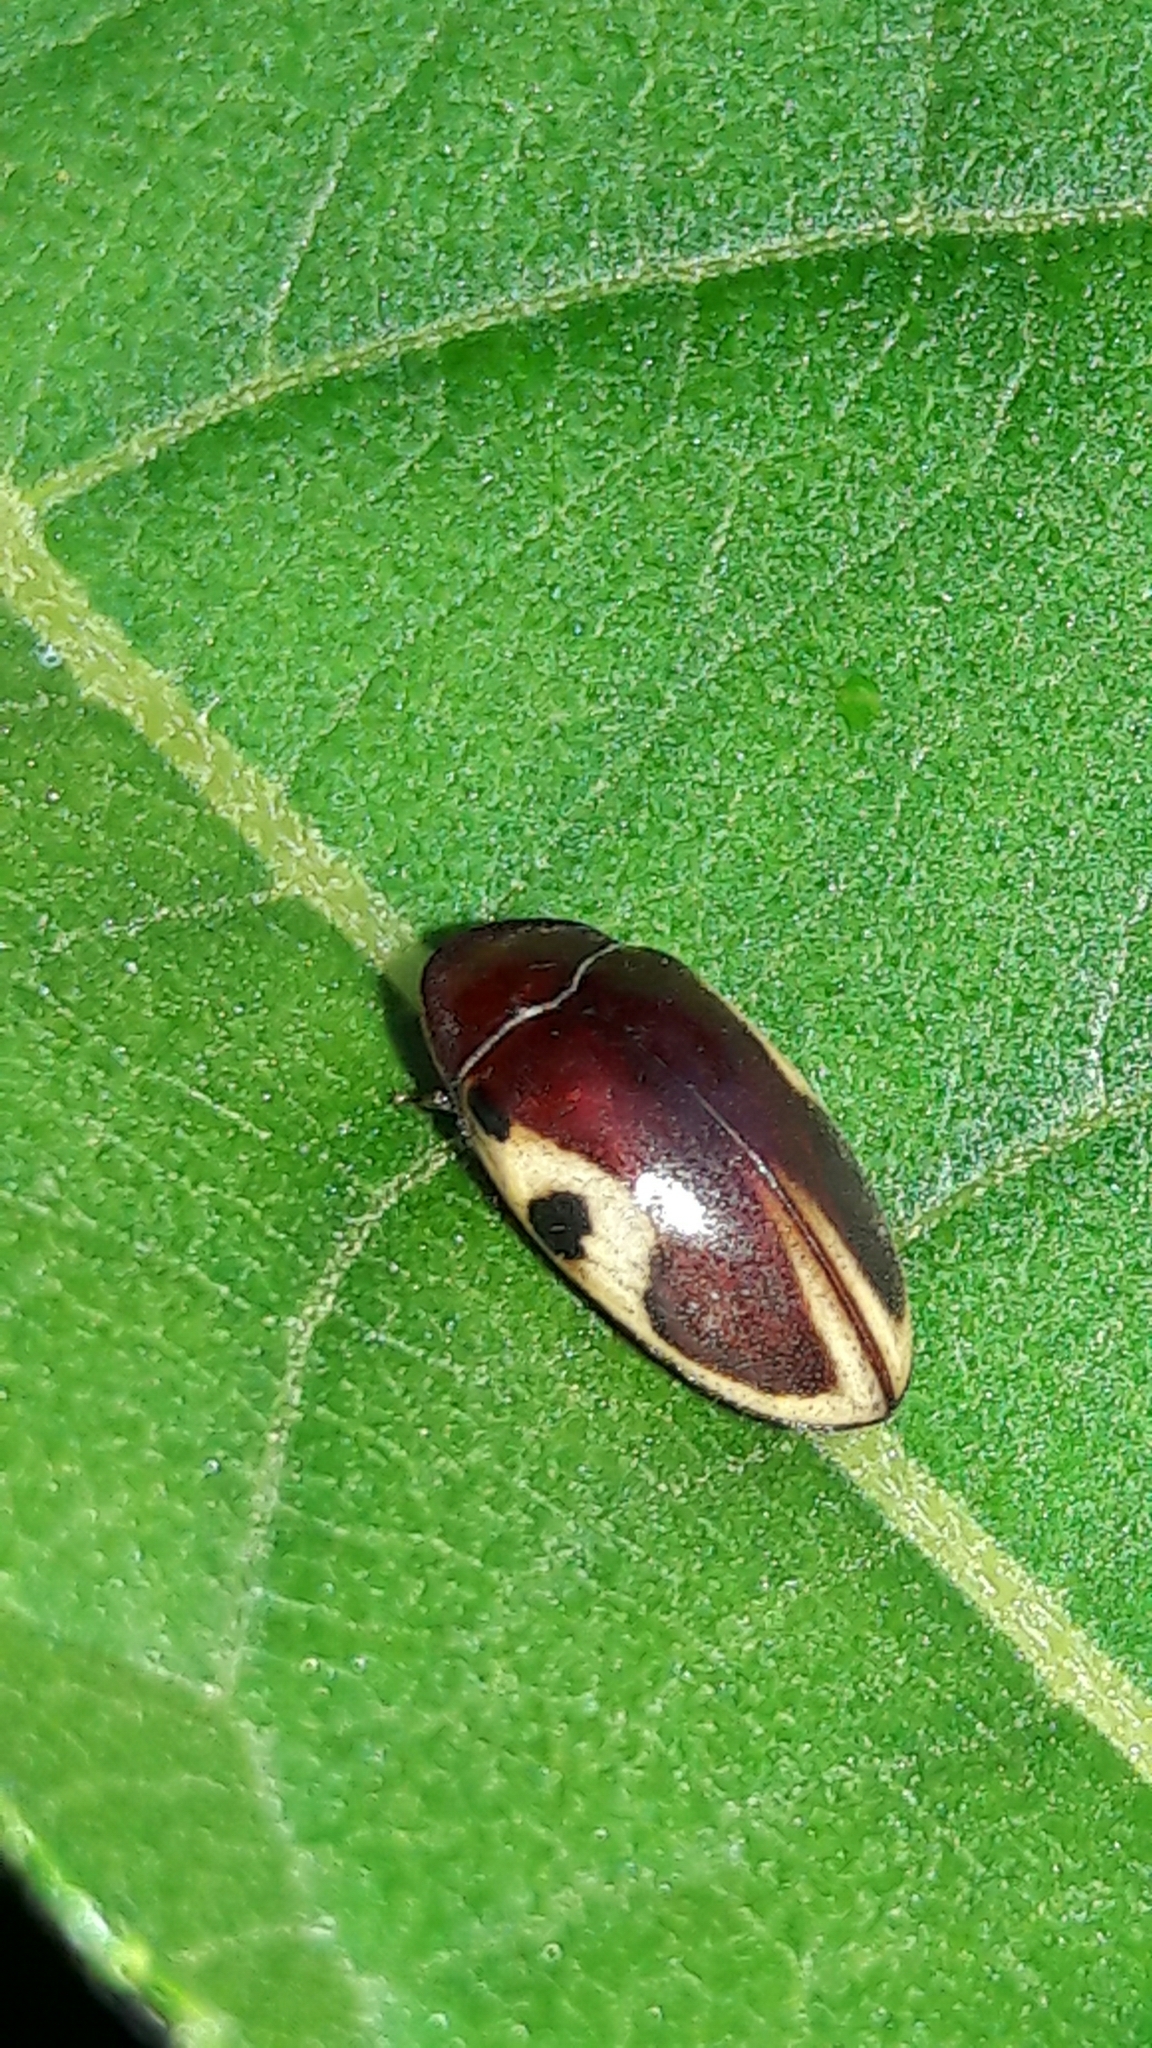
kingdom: Animalia
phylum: Arthropoda
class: Insecta
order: Coleoptera
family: Chelonariidae
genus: Chelonarium
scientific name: Chelonarium
